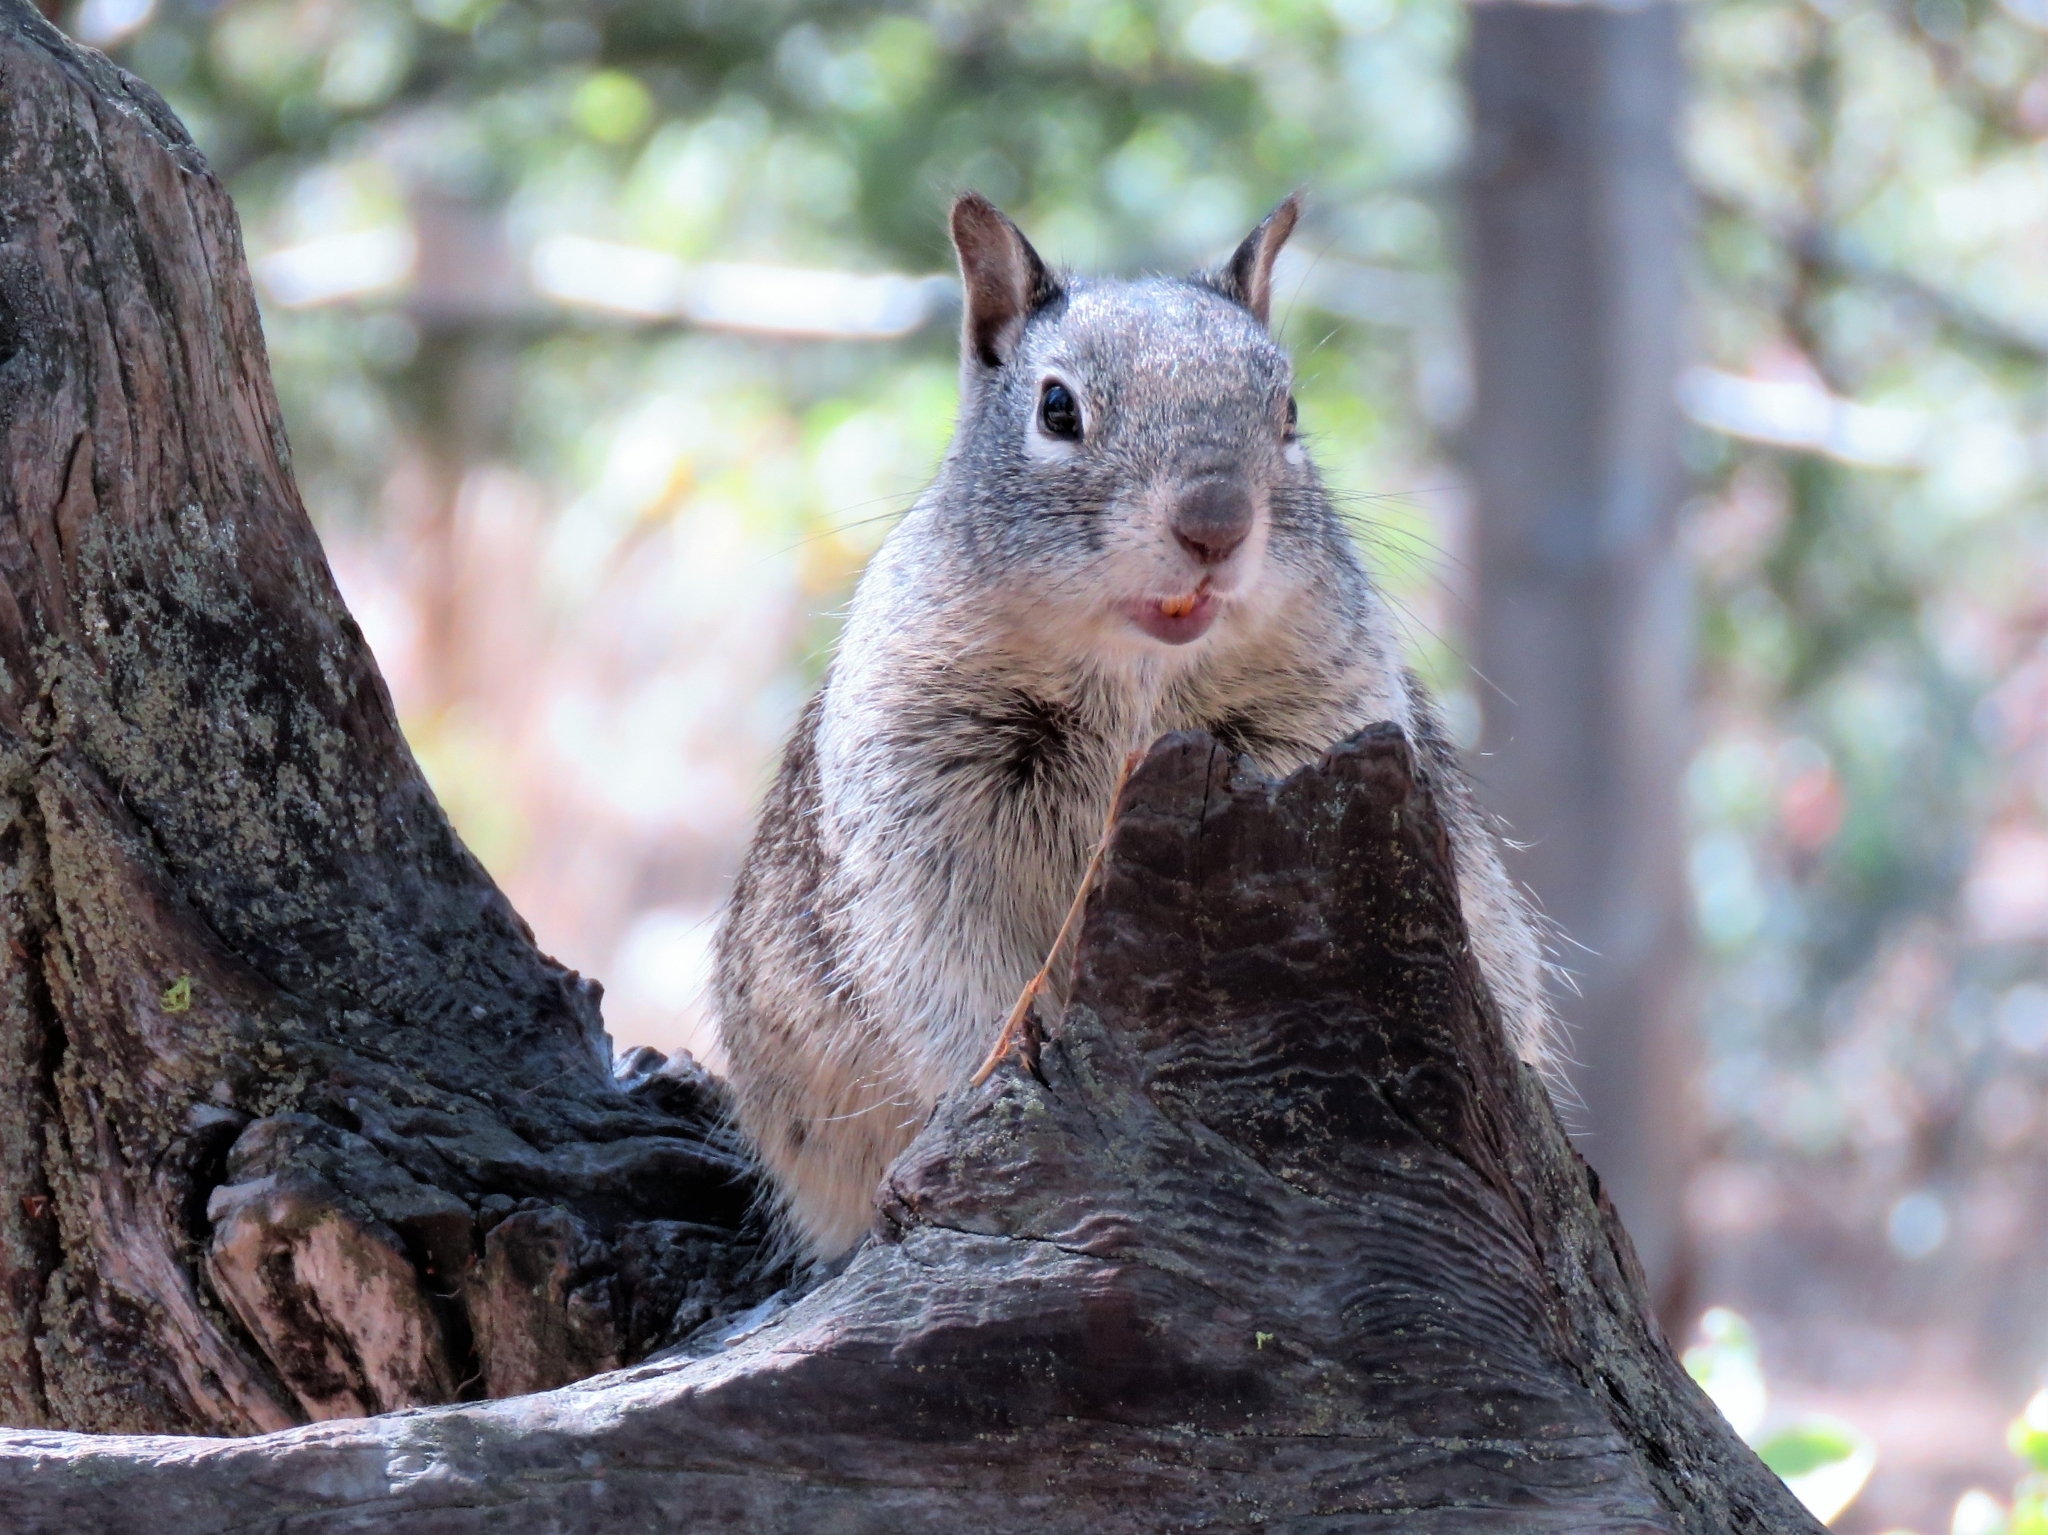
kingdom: Animalia
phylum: Chordata
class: Mammalia
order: Rodentia
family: Sciuridae
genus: Otospermophilus
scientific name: Otospermophilus beecheyi
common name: California ground squirrel
